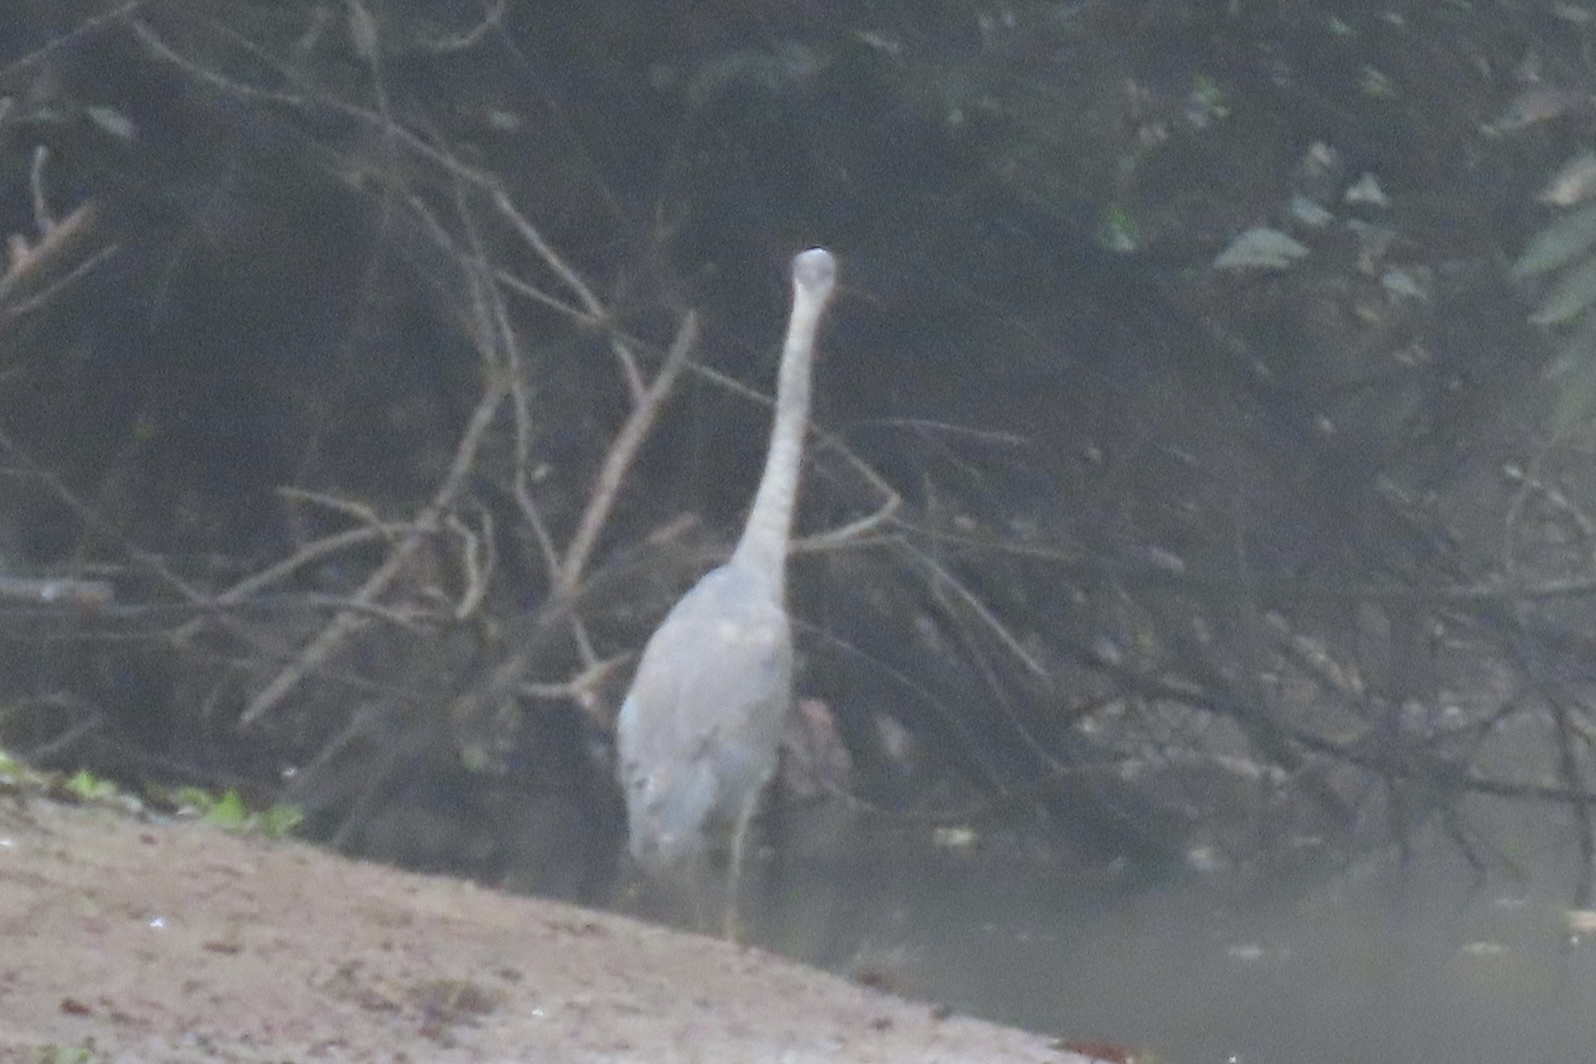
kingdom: Animalia
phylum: Chordata
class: Aves
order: Pelecaniformes
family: Ardeidae
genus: Ardea
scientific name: Ardea herodias
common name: Great blue heron
